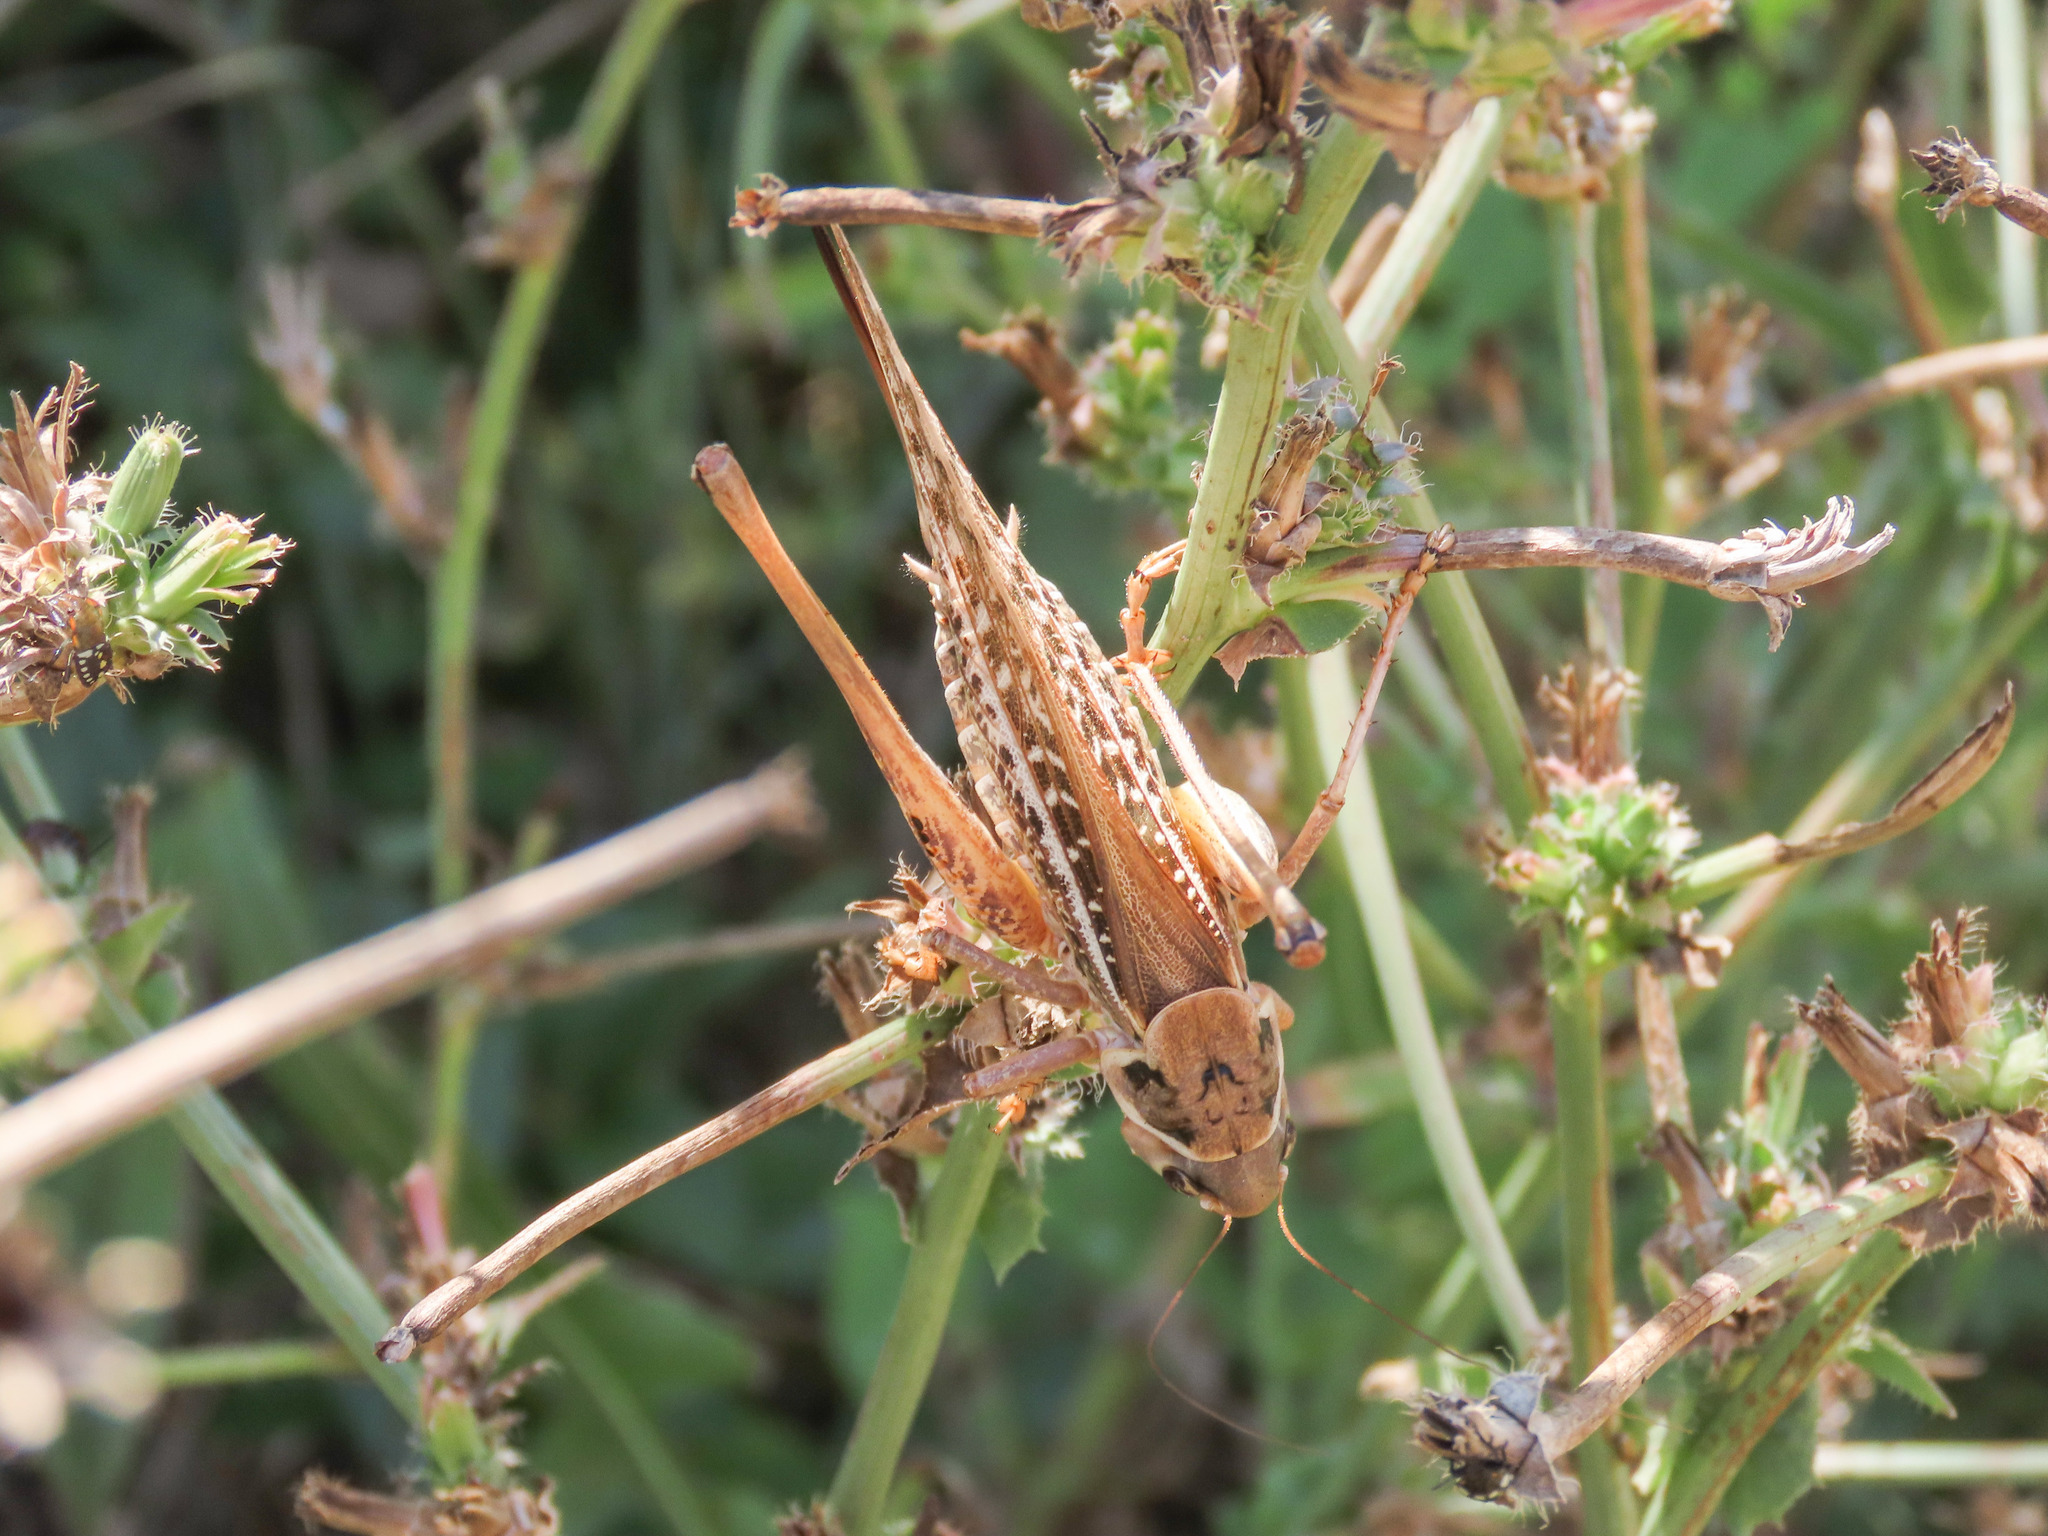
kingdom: Animalia
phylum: Arthropoda
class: Insecta
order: Orthoptera
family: Tettigoniidae
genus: Decticus
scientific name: Decticus albifrons
